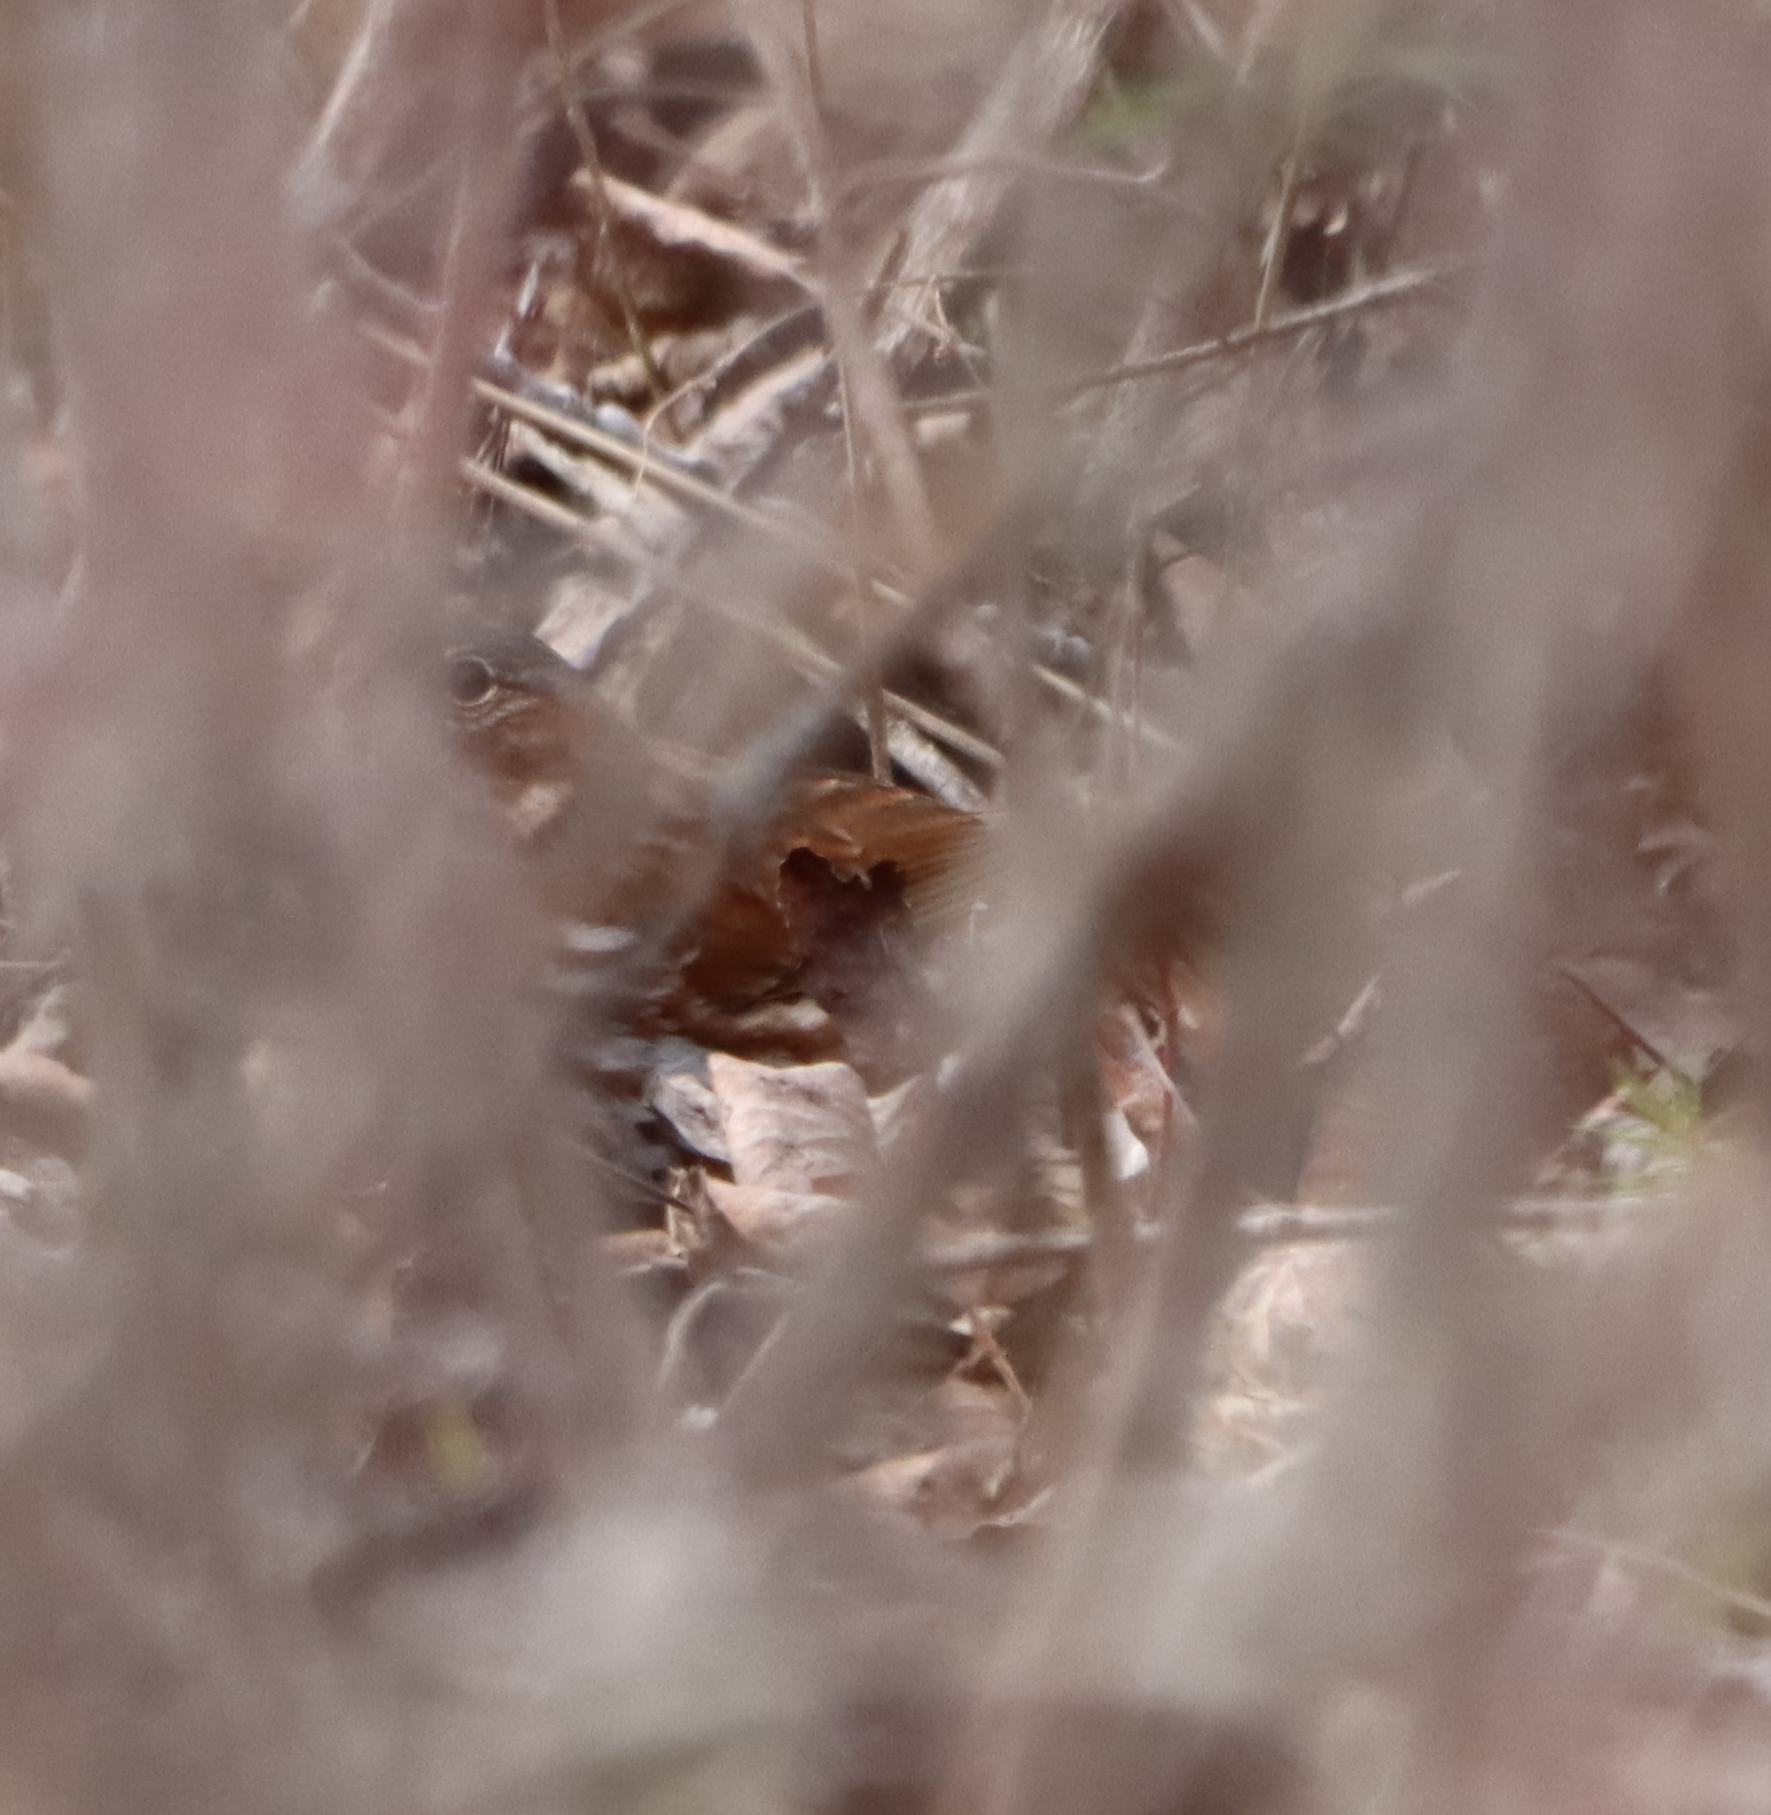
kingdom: Animalia
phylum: Chordata
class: Aves
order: Passeriformes
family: Passerellidae
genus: Passerella
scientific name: Passerella iliaca
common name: Fox sparrow
